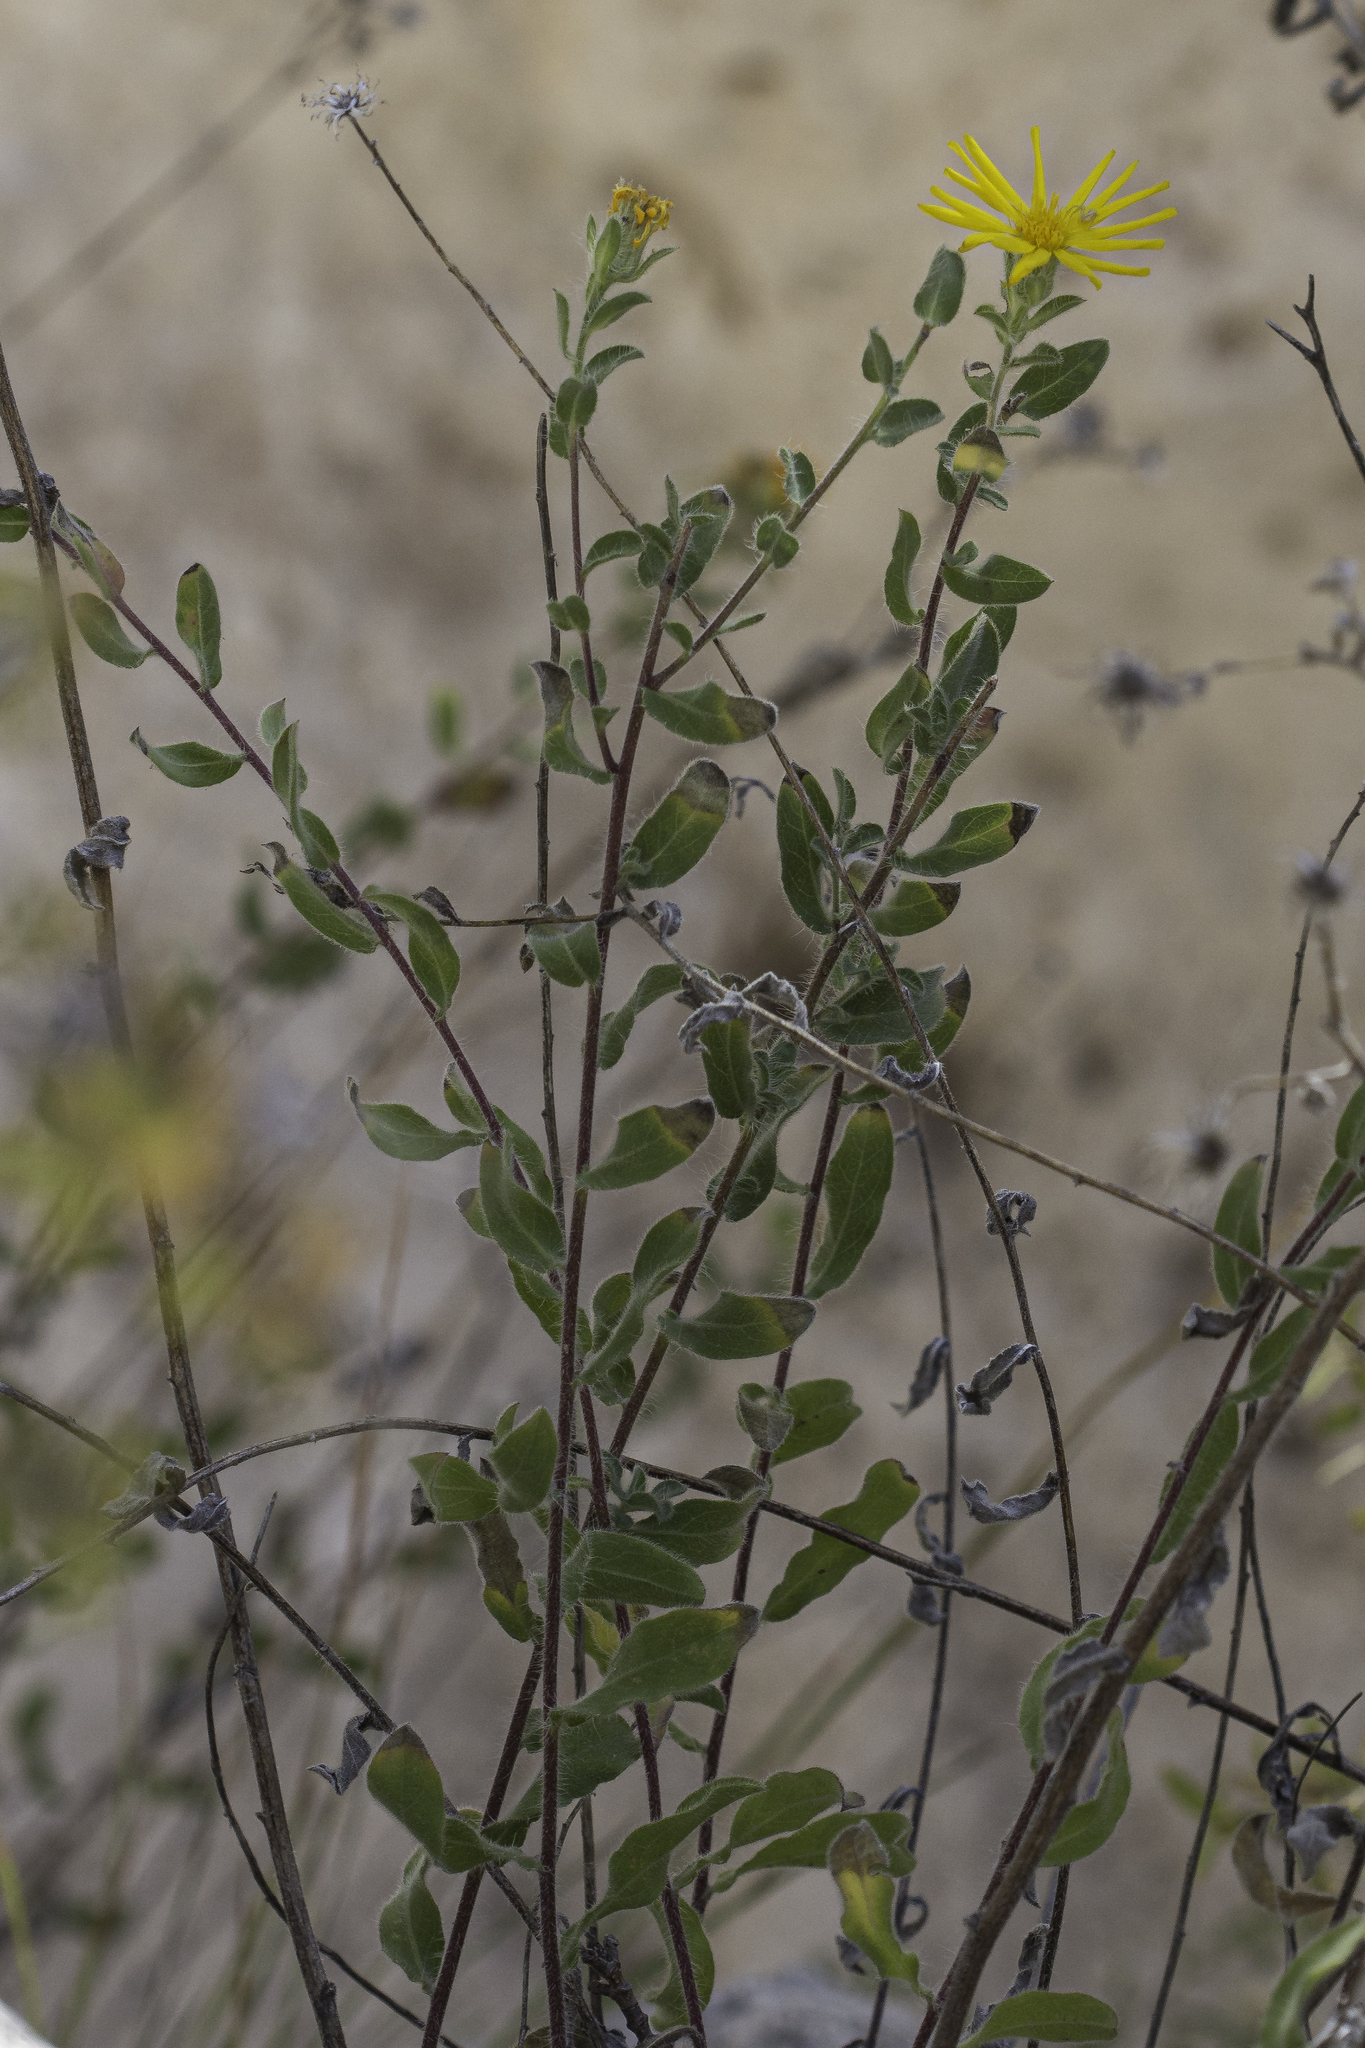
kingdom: Plantae
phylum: Tracheophyta
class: Magnoliopsida
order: Asterales
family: Asteraceae
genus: Heterotheca
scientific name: Heterotheca fulcrata
